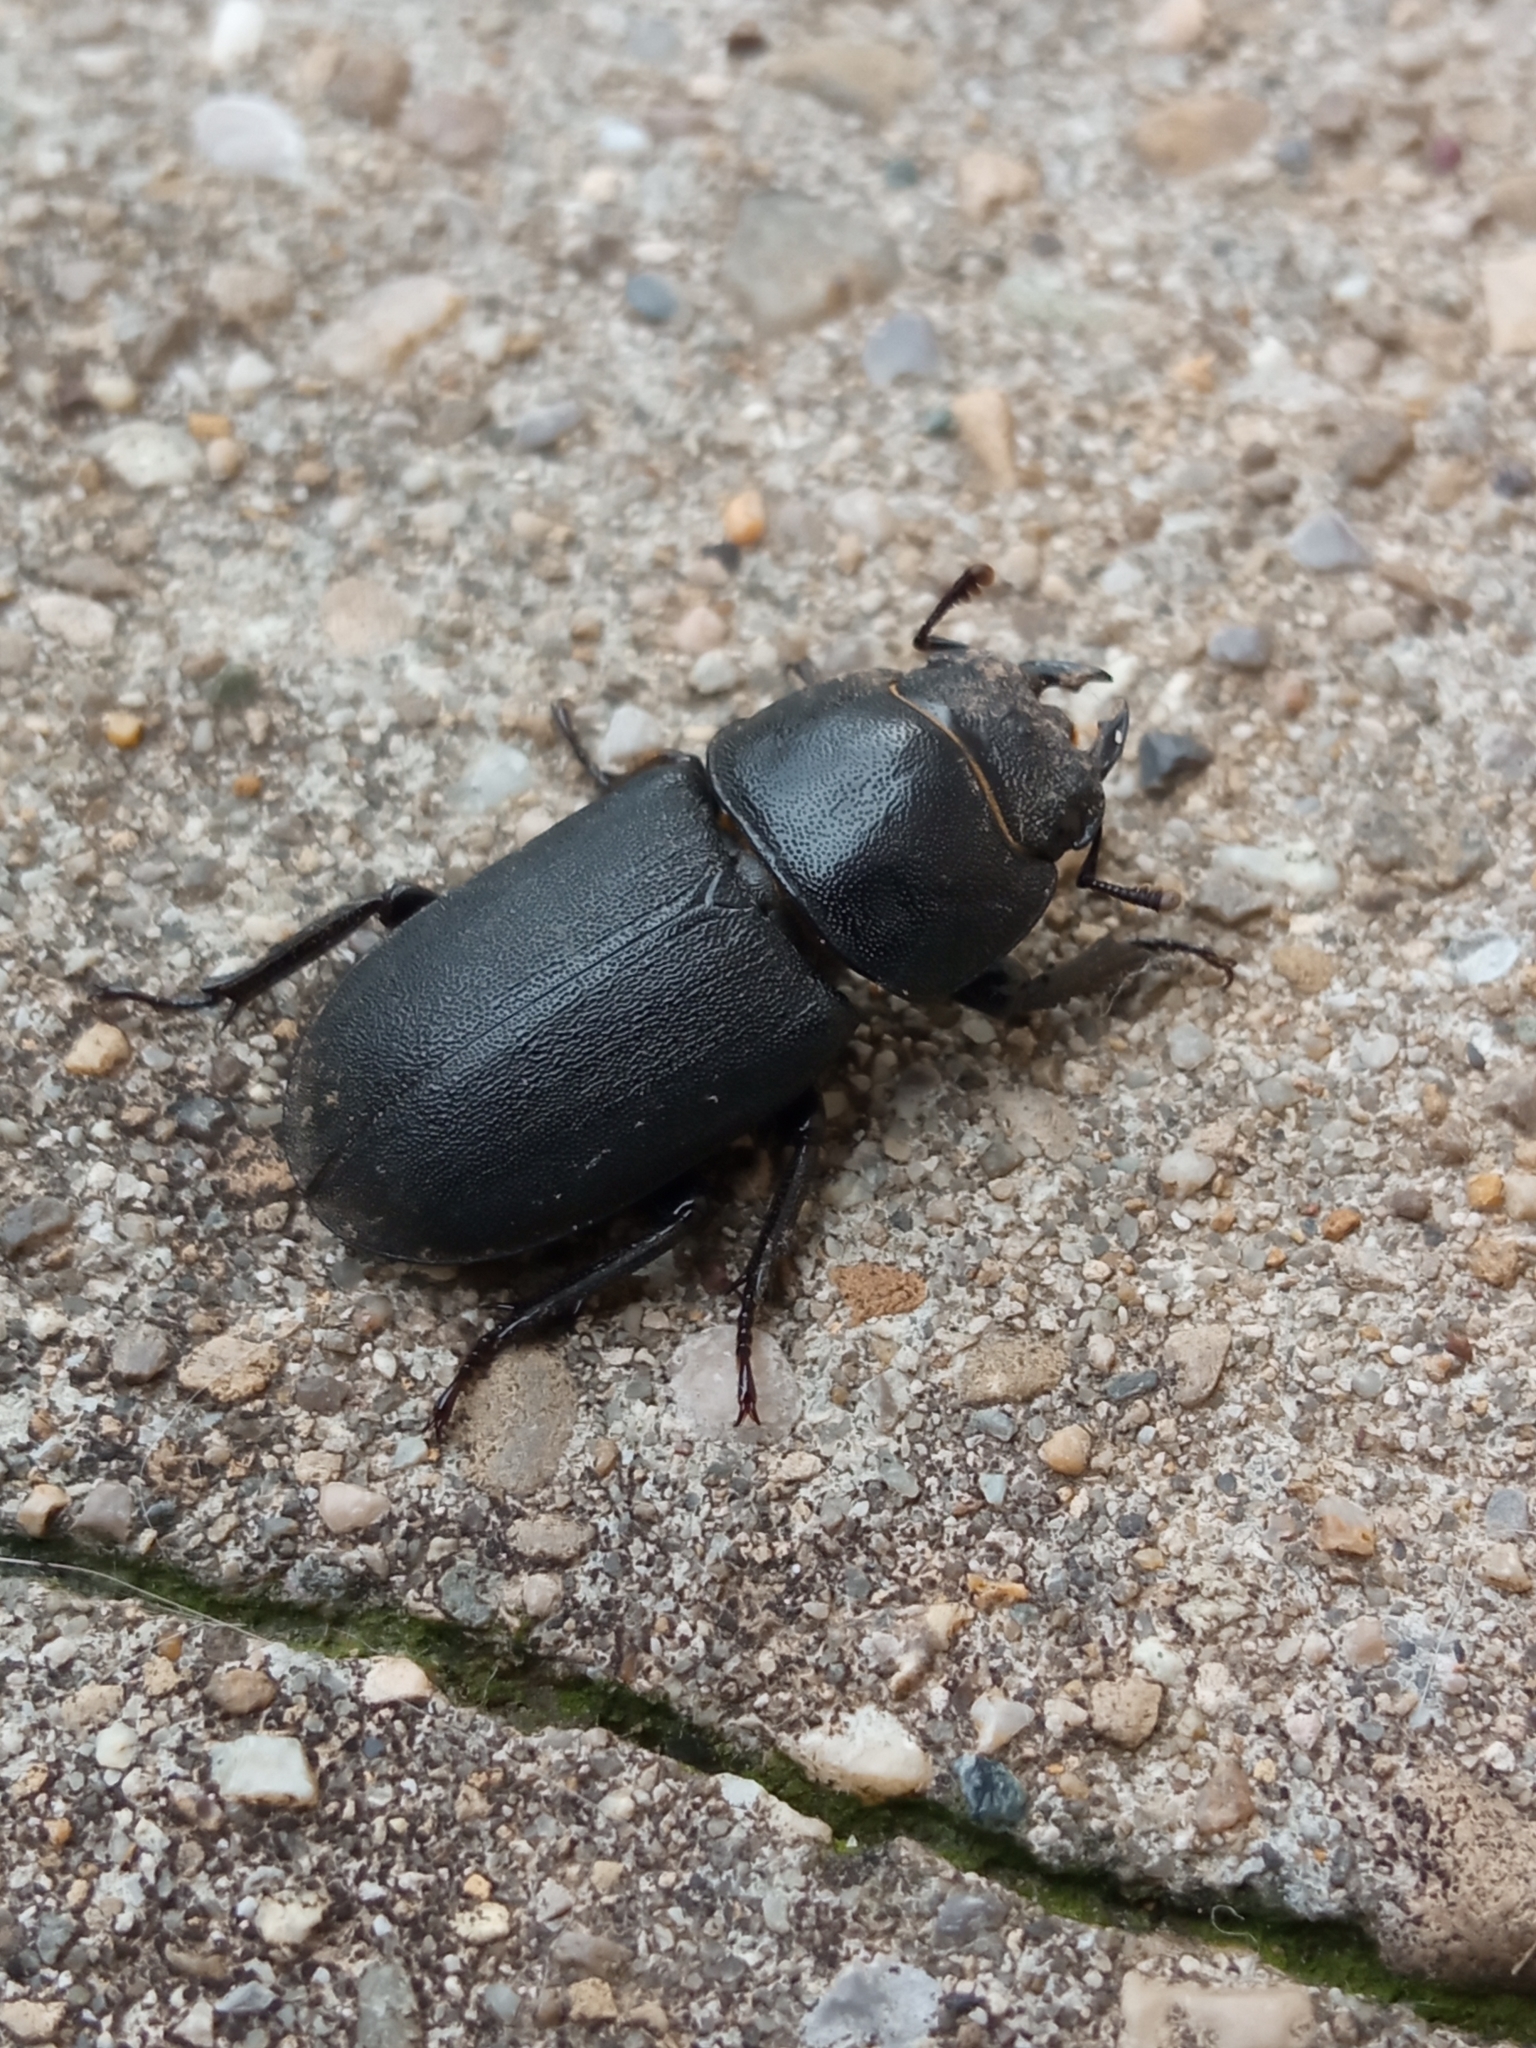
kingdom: Animalia
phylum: Arthropoda
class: Insecta
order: Coleoptera
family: Lucanidae
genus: Dorcus
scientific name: Dorcus parallelipipedus
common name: Lesser stag beetle
